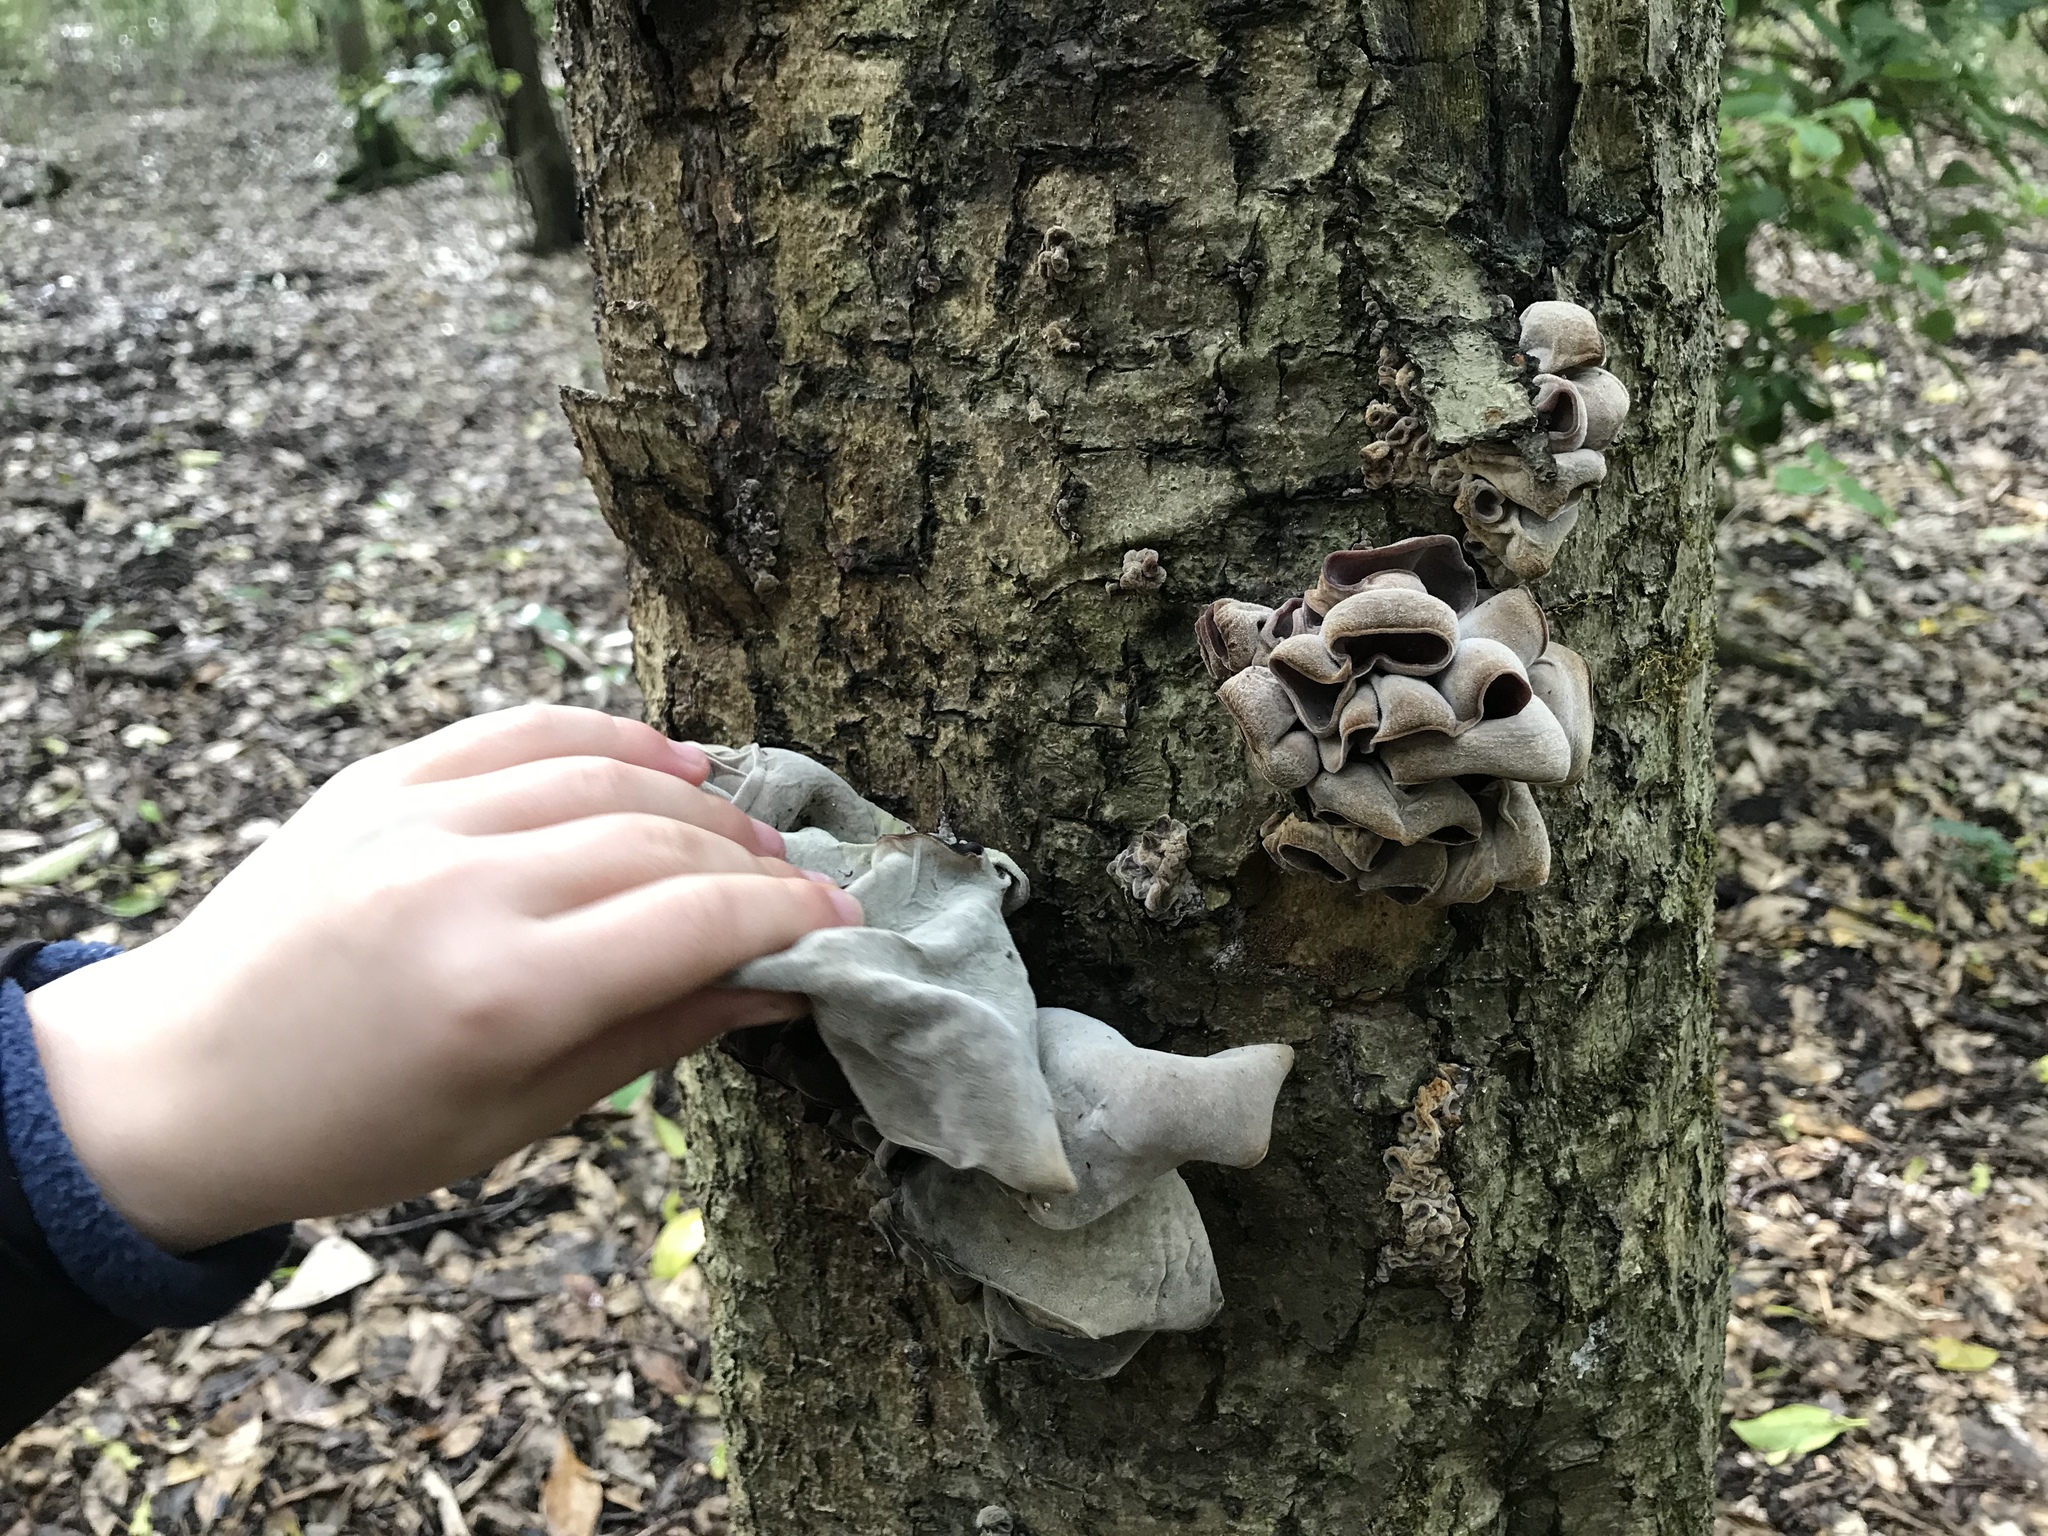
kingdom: Fungi
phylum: Basidiomycota
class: Agaricomycetes
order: Auriculariales
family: Auriculariaceae
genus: Auricularia
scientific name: Auricularia cornea
